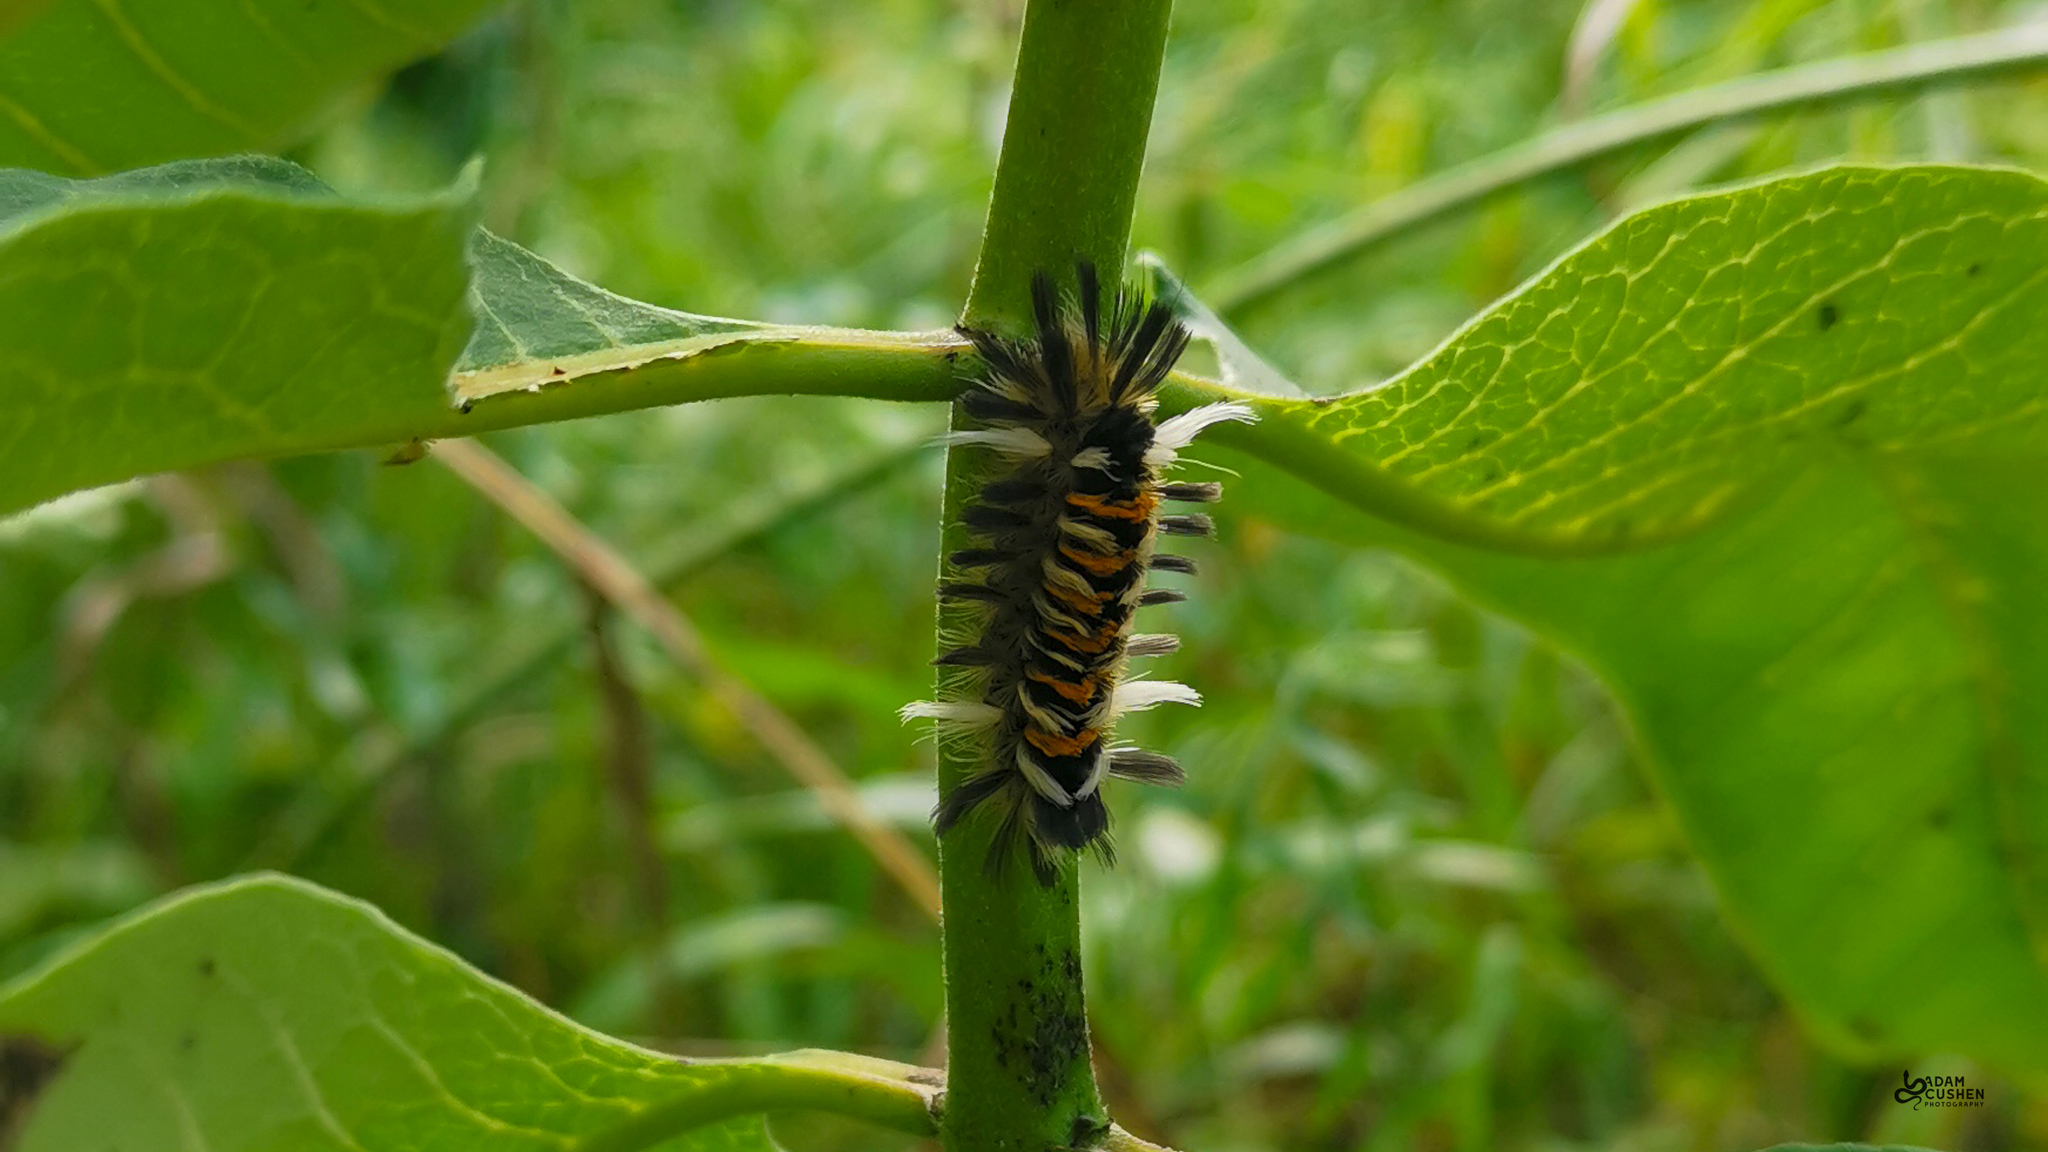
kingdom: Animalia
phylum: Arthropoda
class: Insecta
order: Lepidoptera
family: Erebidae
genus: Euchaetes
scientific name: Euchaetes egle
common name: Milkweed tussock moth
